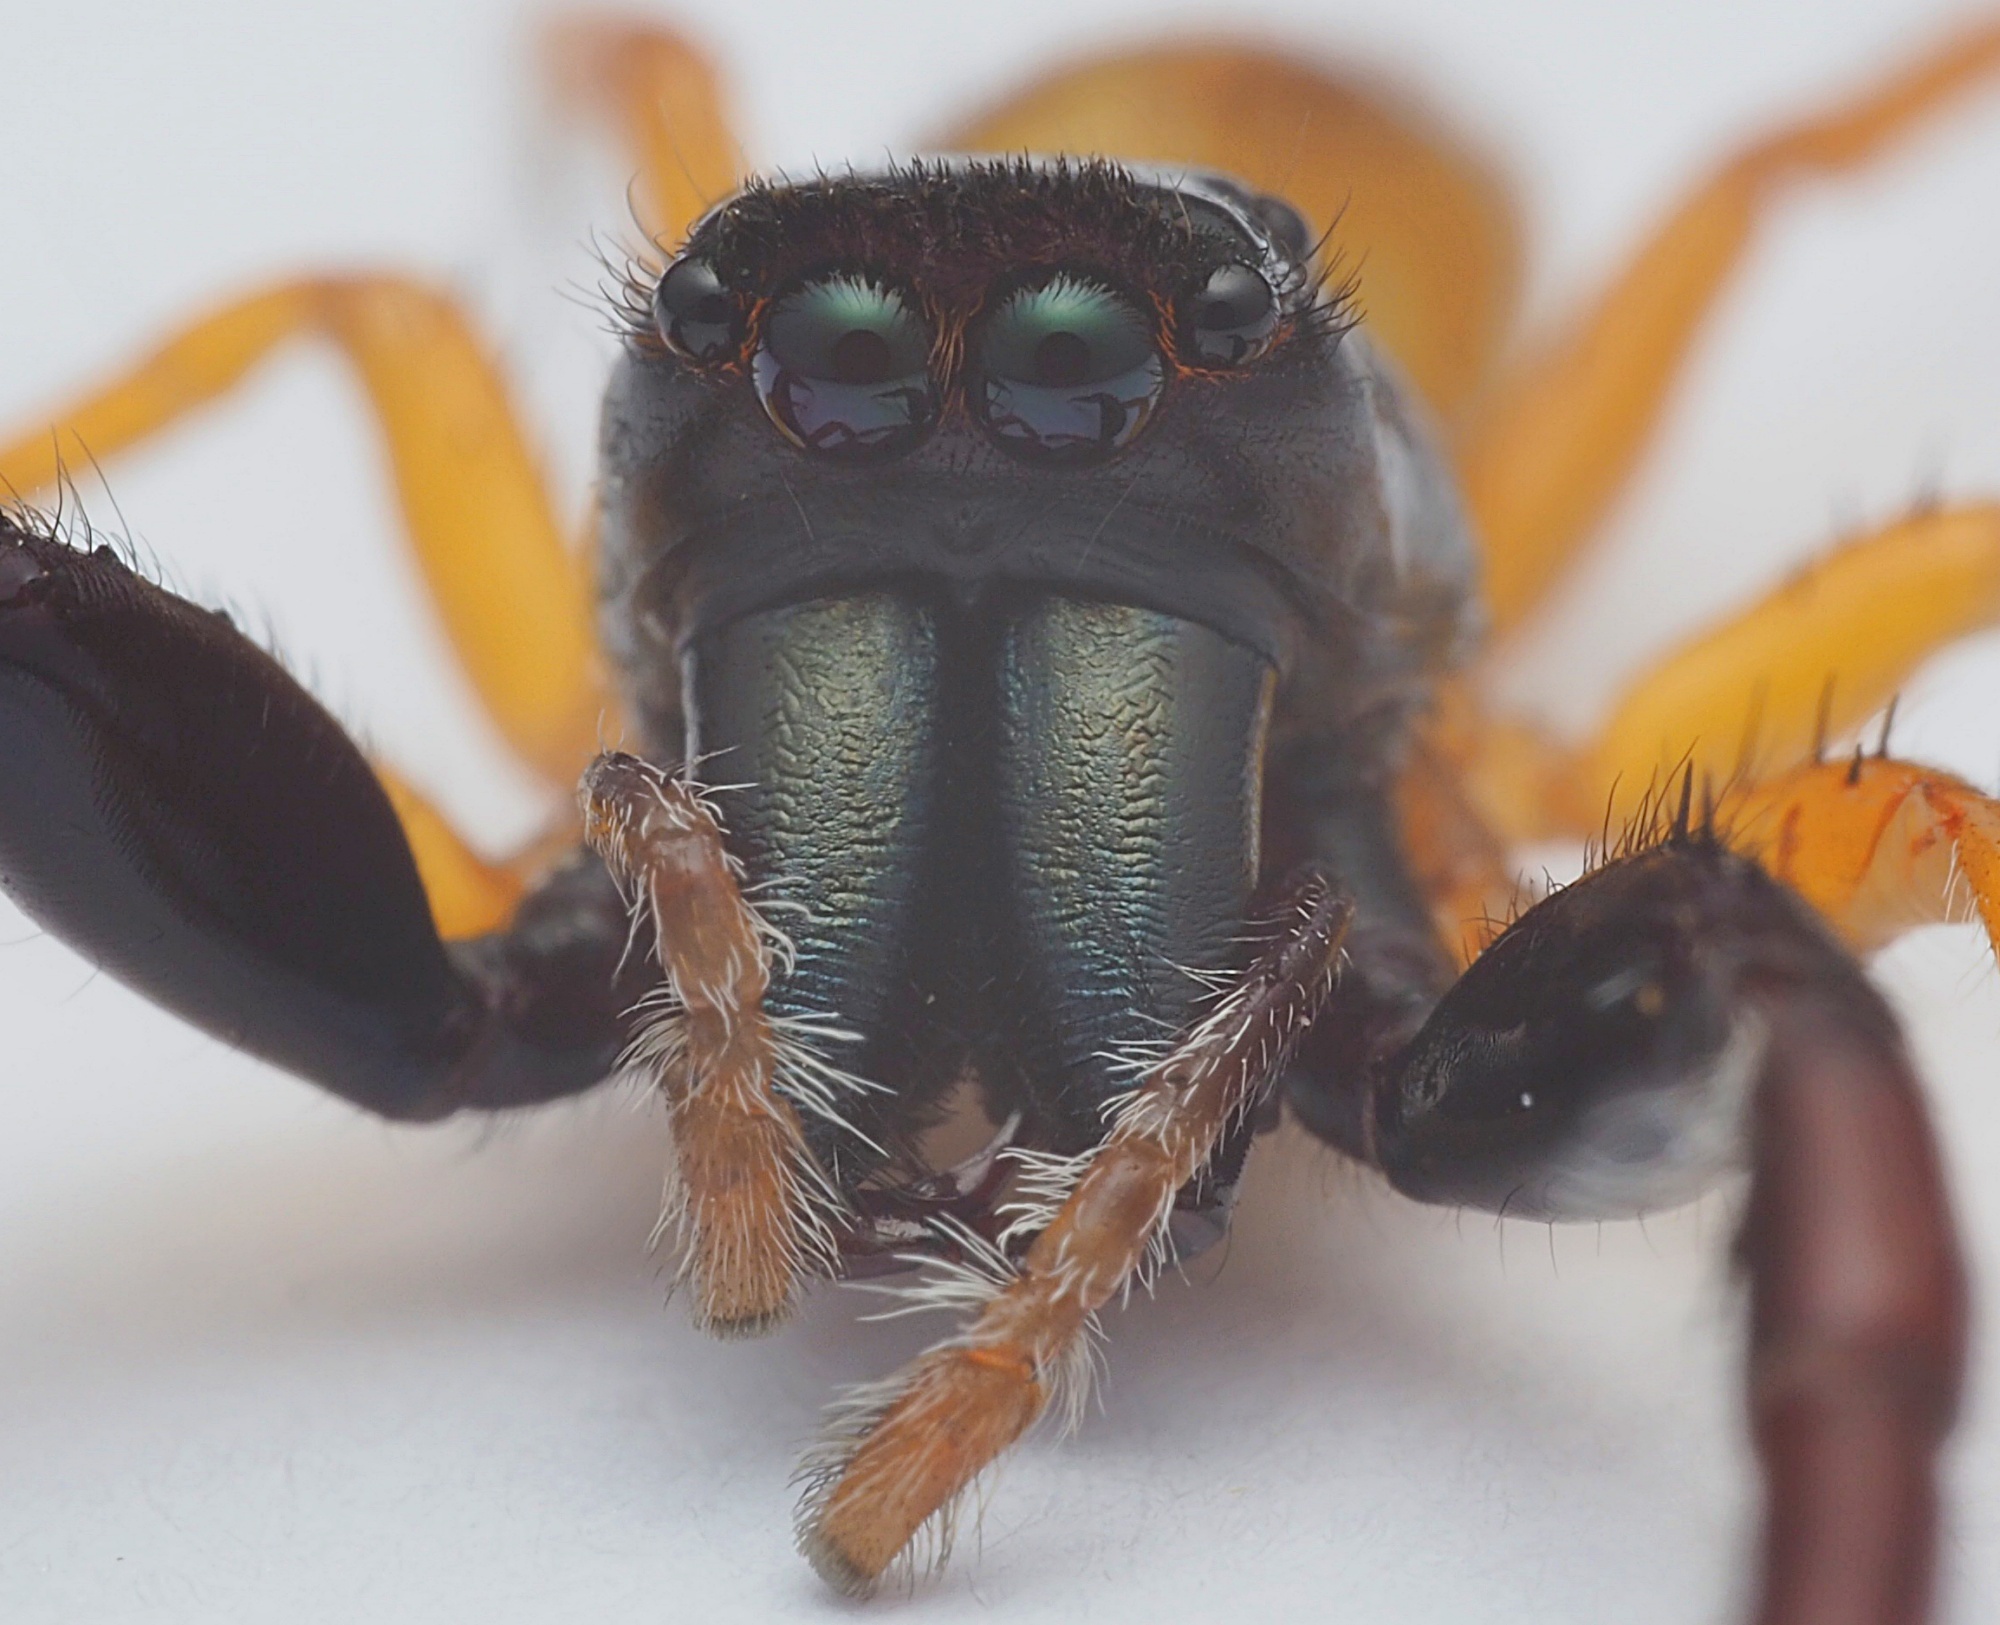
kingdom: Animalia
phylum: Arthropoda
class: Arachnida
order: Araneae
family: Salticidae
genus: Trite
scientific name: Trite planiceps
